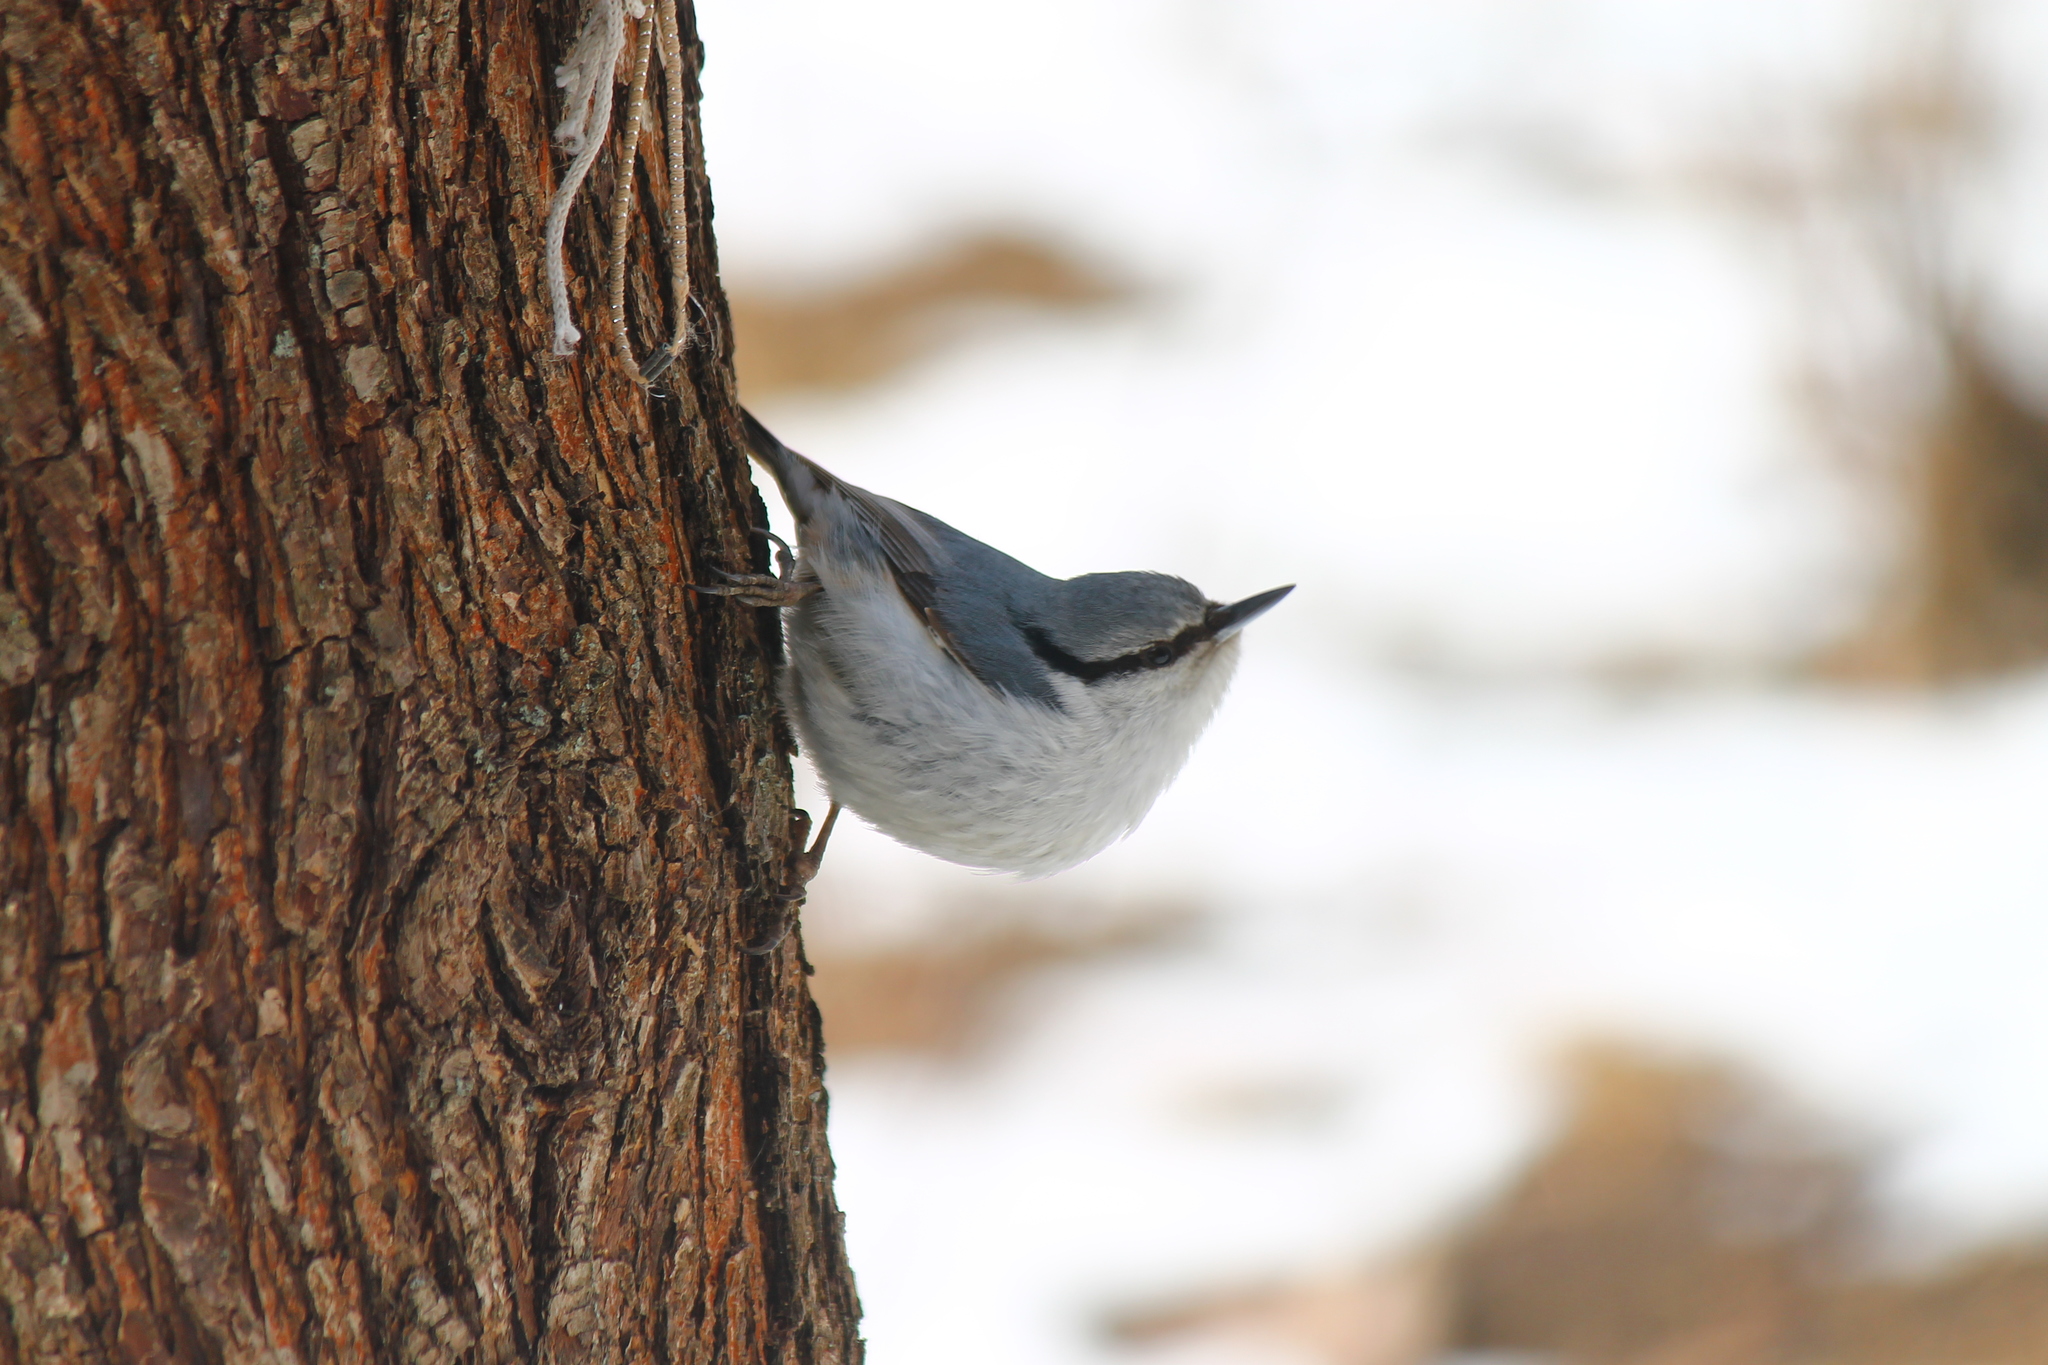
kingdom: Animalia
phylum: Chordata
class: Aves
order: Passeriformes
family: Sittidae
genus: Sitta
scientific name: Sitta europaea
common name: Eurasian nuthatch
